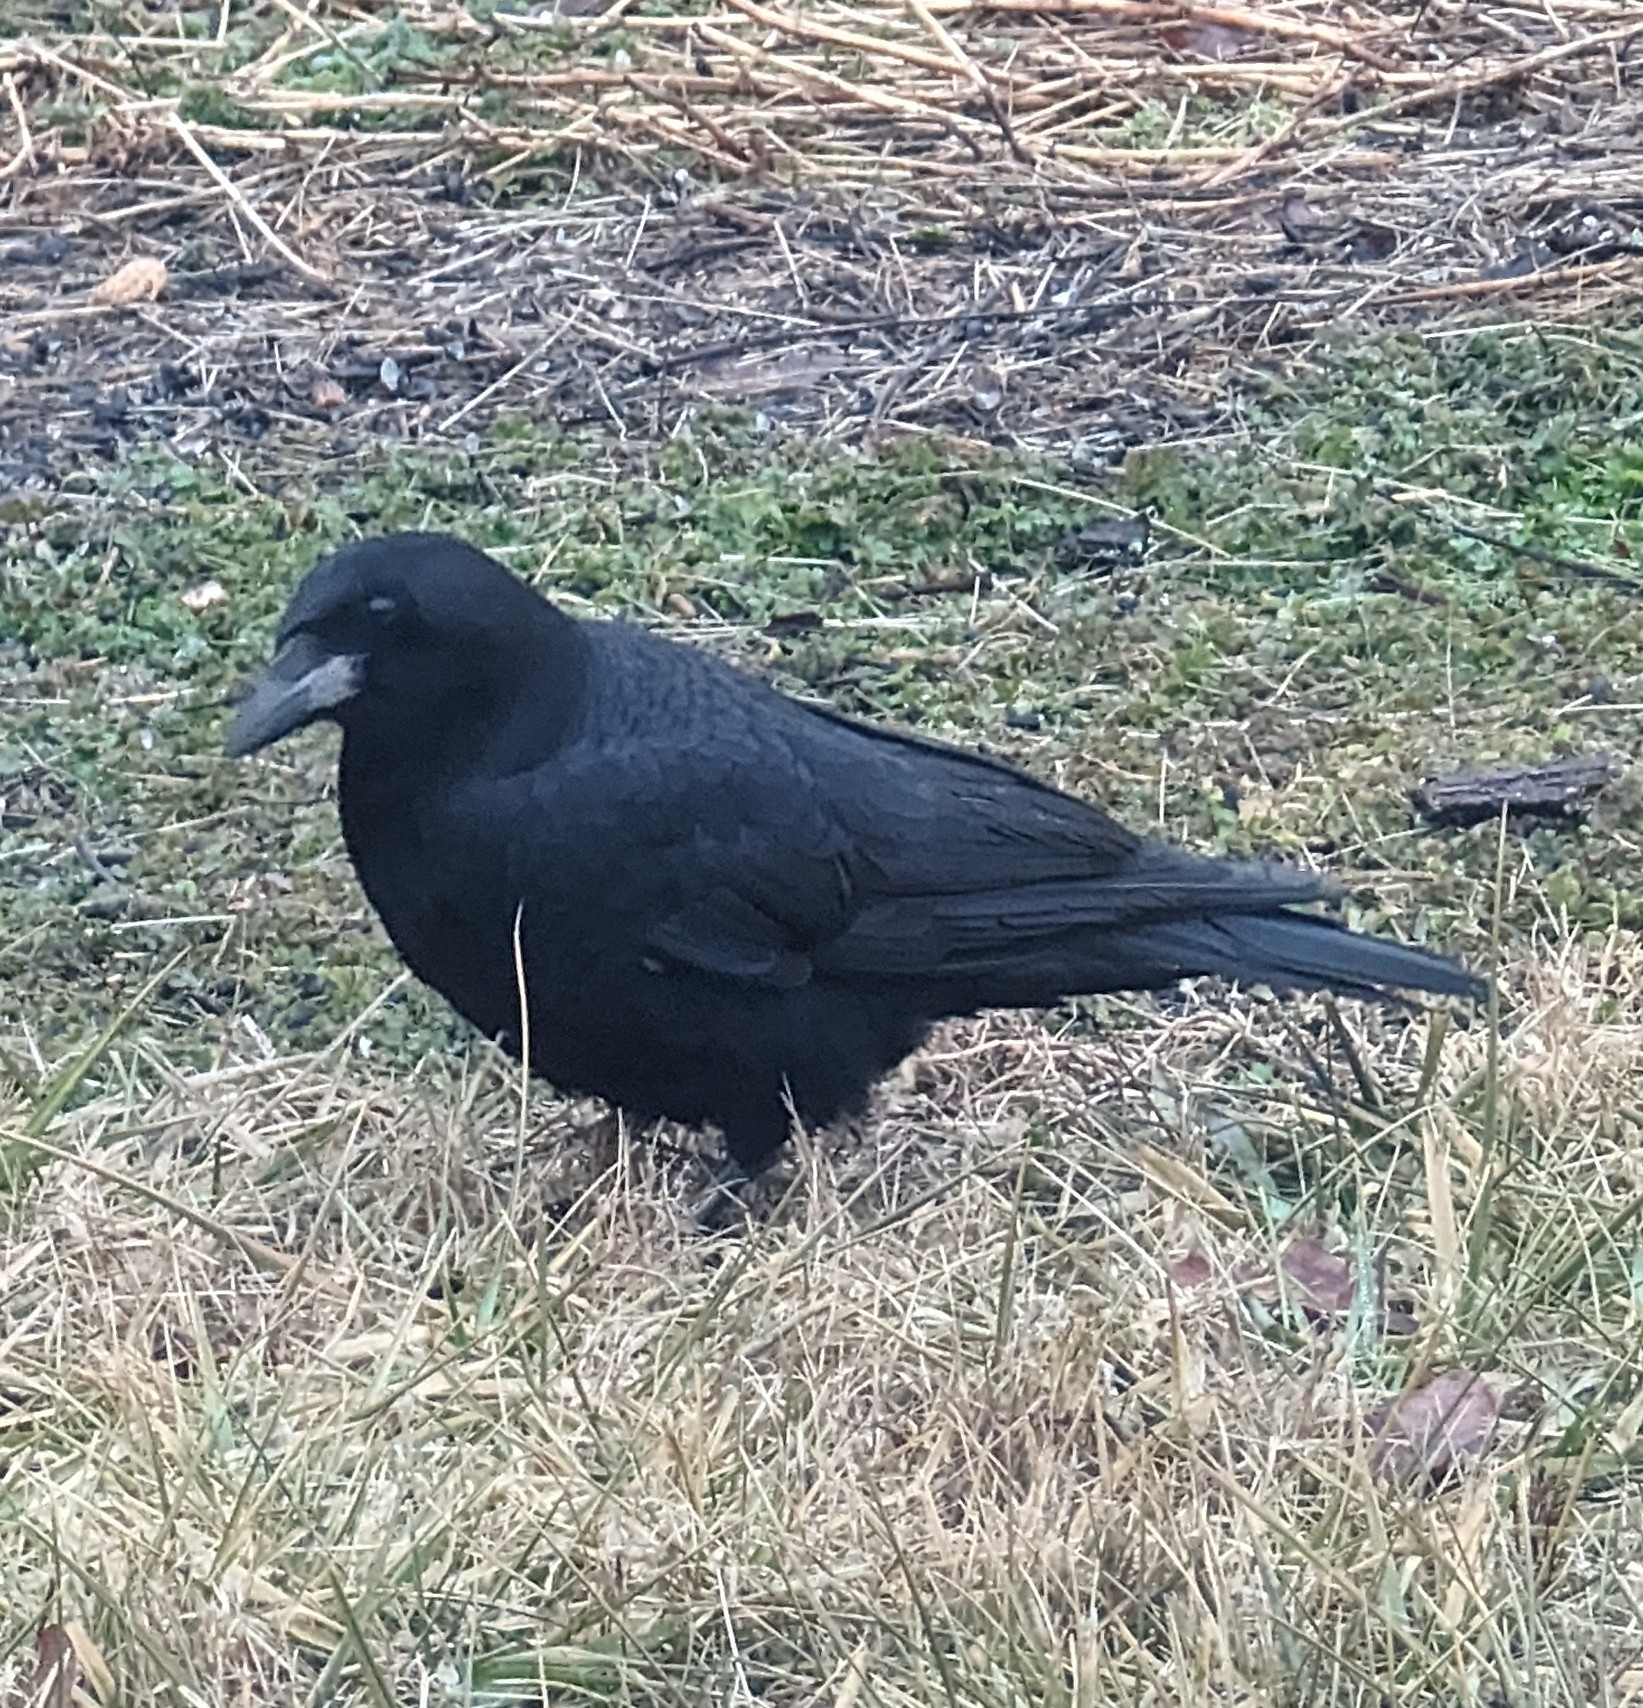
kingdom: Animalia
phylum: Chordata
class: Aves
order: Passeriformes
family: Corvidae
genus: Corvus
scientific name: Corvus brachyrhynchos
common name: American crow
